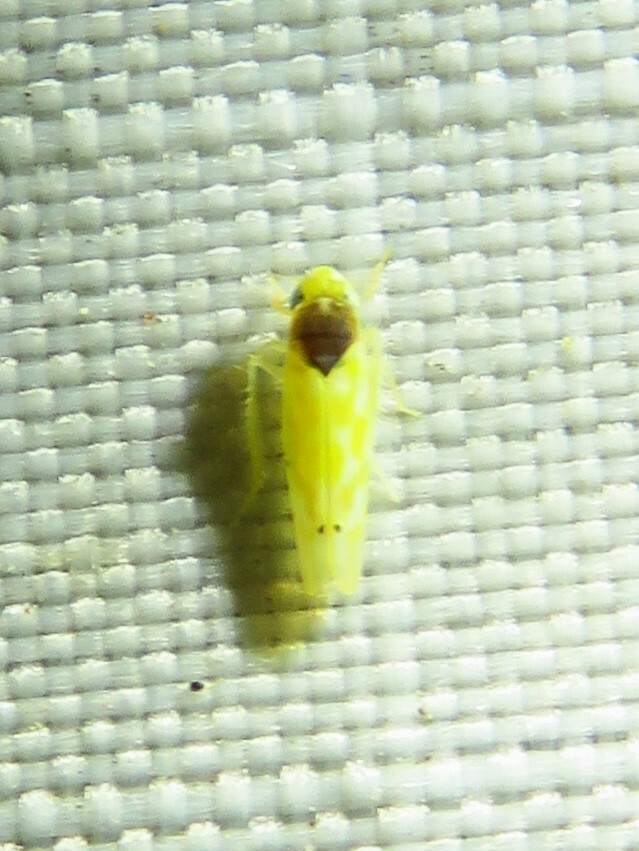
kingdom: Animalia
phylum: Arthropoda
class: Insecta
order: Hemiptera
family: Cicadellidae
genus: Eratoneura
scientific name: Eratoneura ardens
